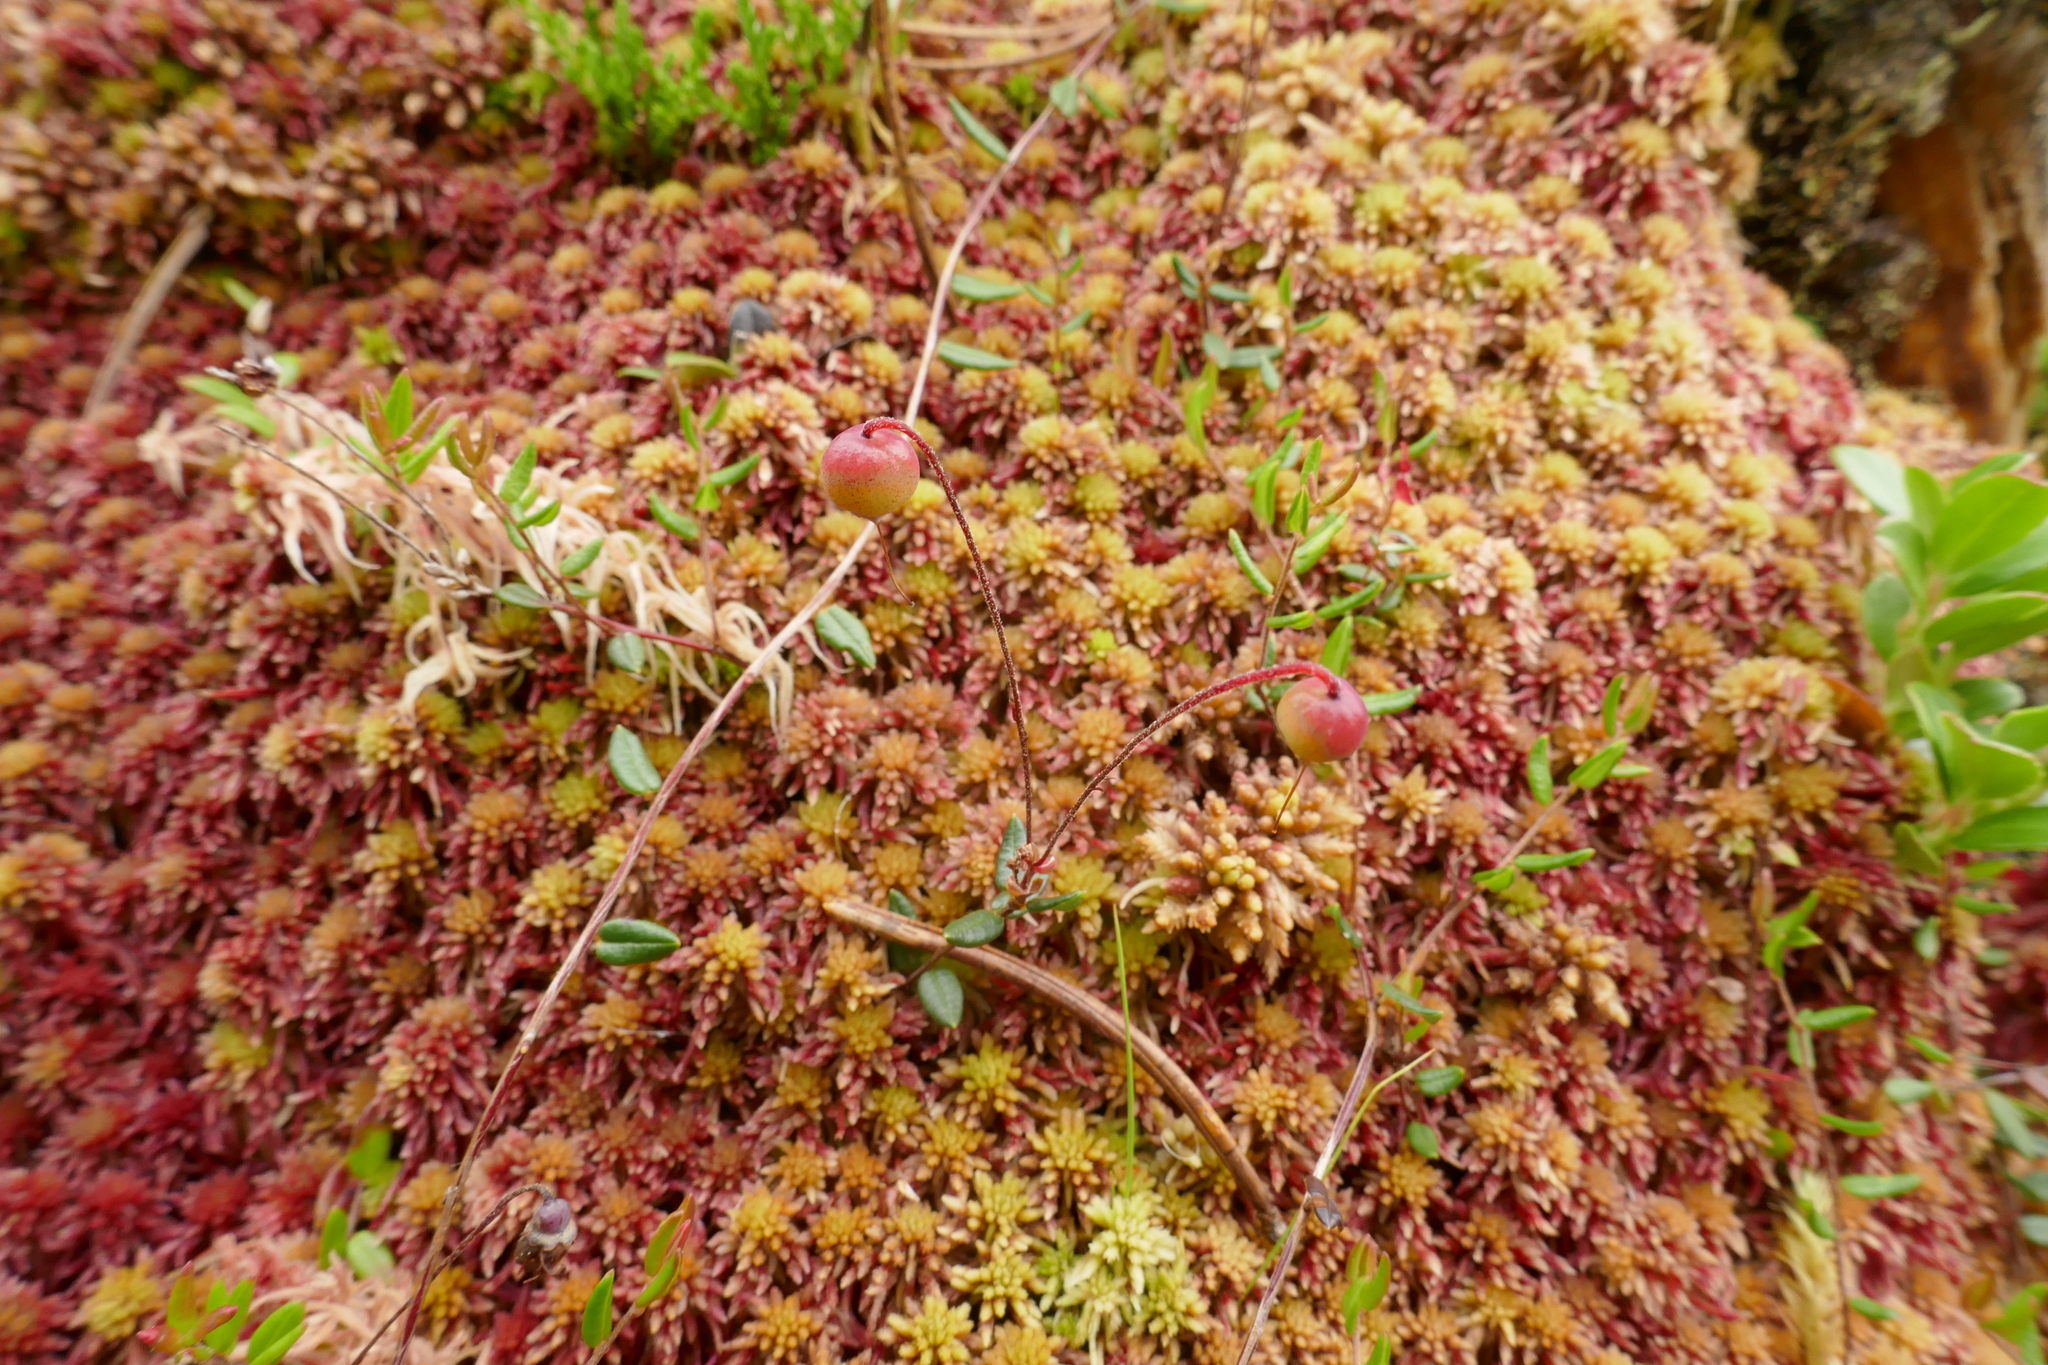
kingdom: Plantae
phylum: Tracheophyta
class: Magnoliopsida
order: Ericales
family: Ericaceae
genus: Vaccinium
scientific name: Vaccinium oxycoccos
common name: Cranberry
